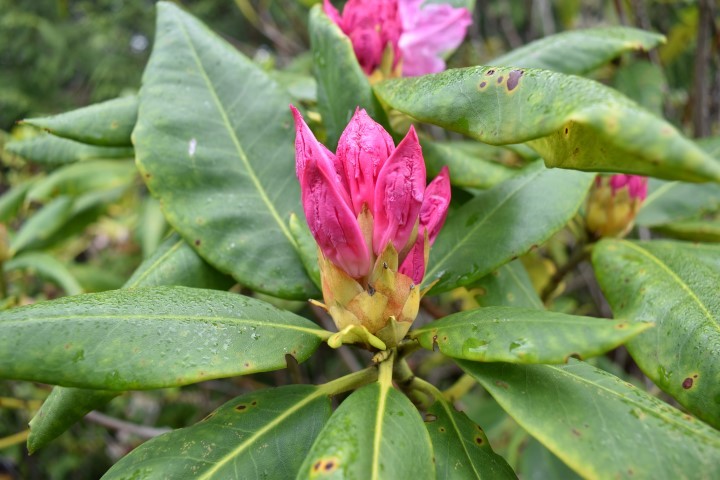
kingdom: Plantae
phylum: Tracheophyta
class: Magnoliopsida
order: Ericales
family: Ericaceae
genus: Rhododendron
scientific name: Rhododendron macrophyllum
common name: California rose bay
